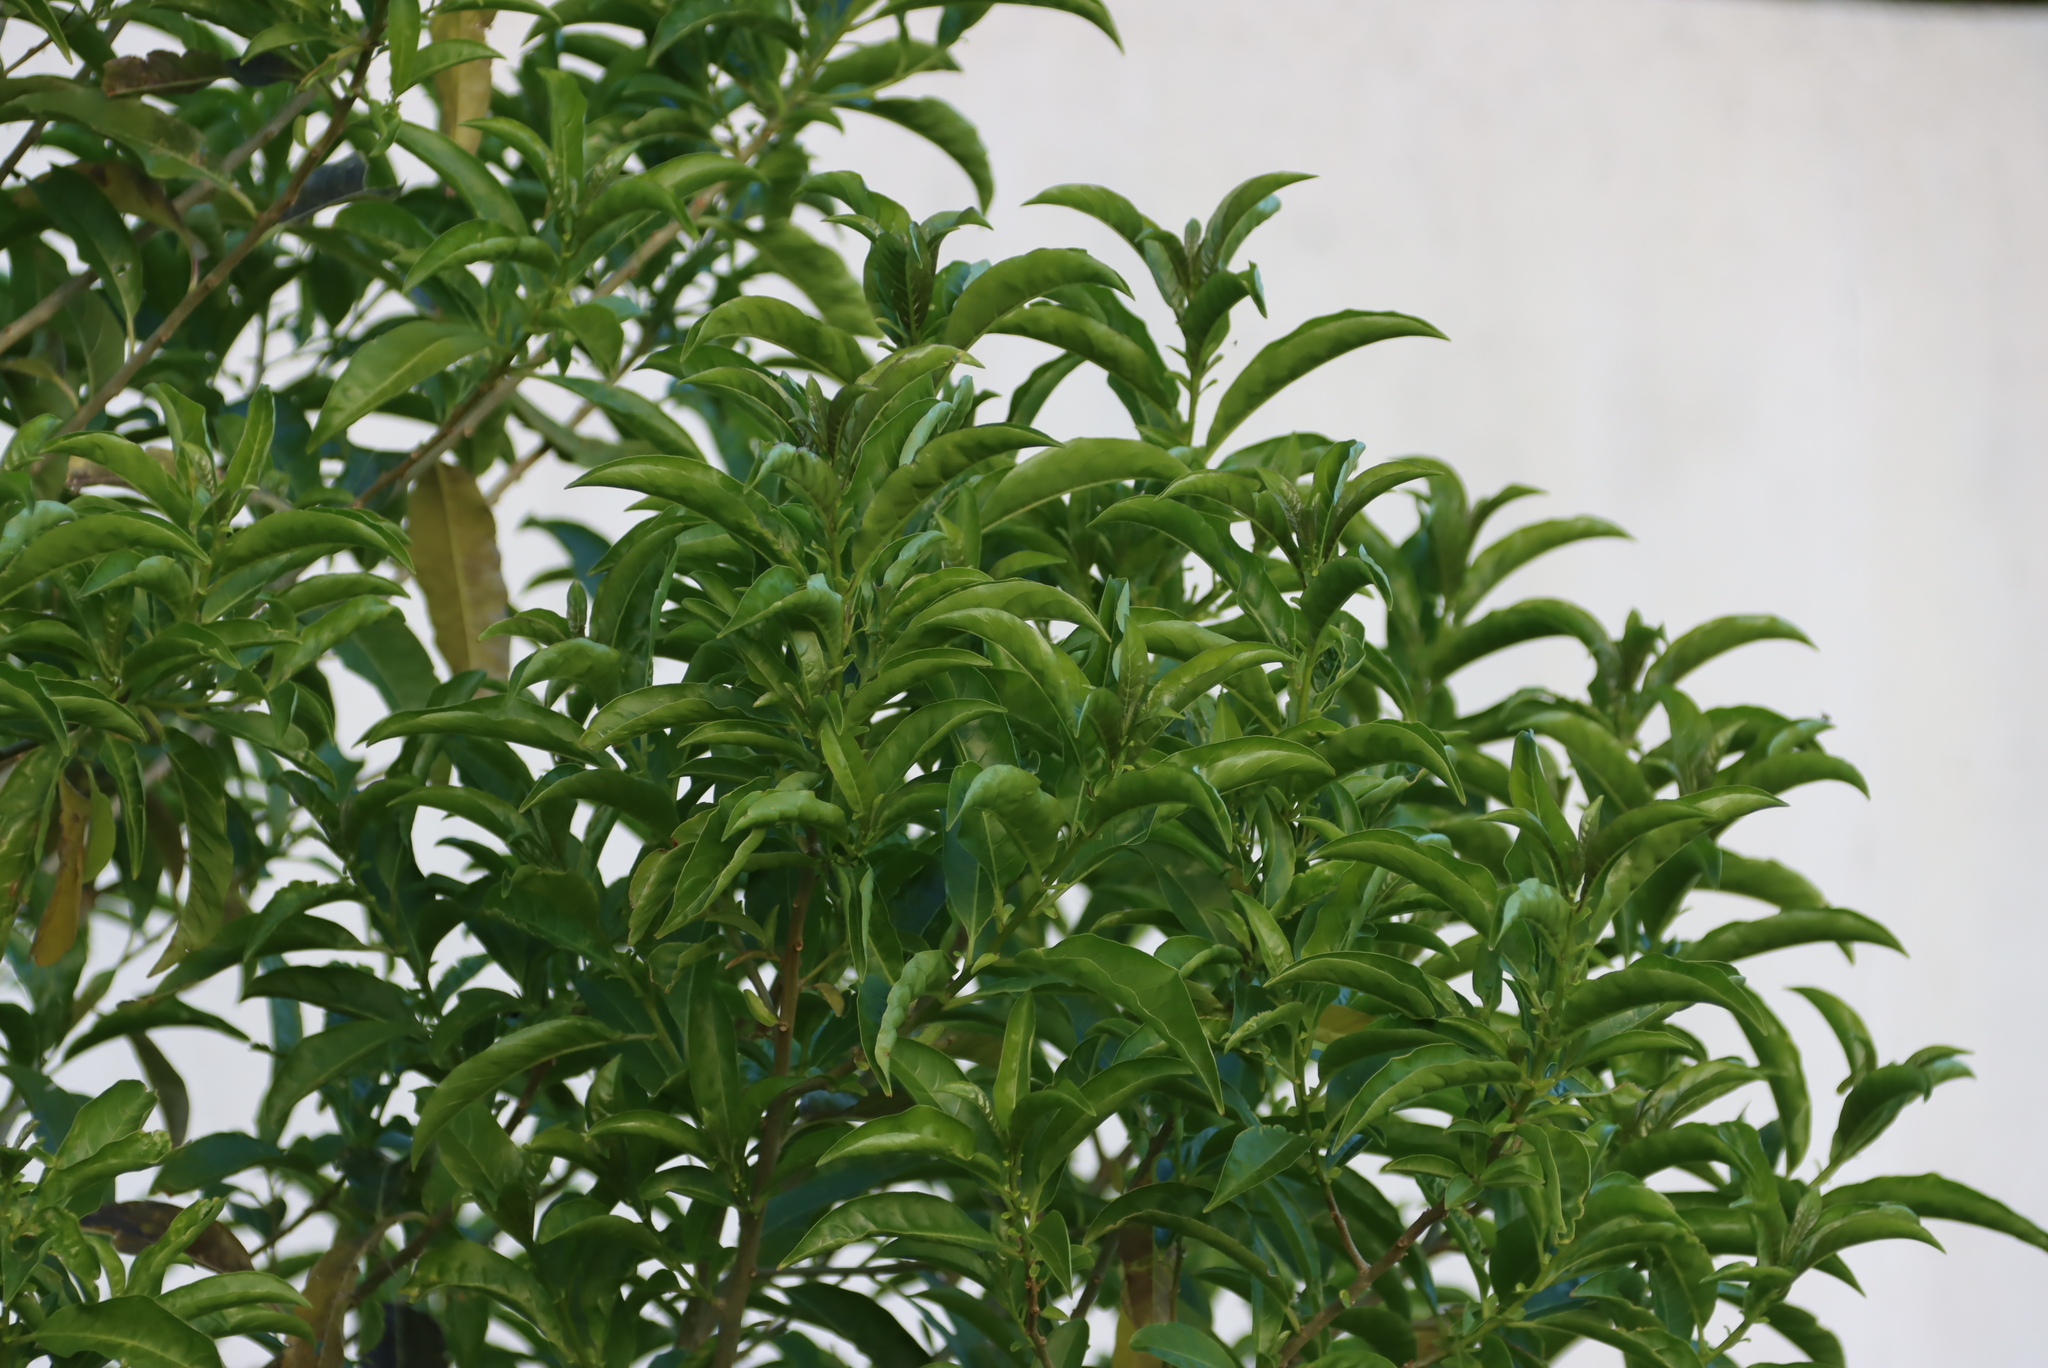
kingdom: Plantae
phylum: Tracheophyta
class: Magnoliopsida
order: Solanales
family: Solanaceae
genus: Cestrum
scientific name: Cestrum laevigatum
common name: Inkberry
